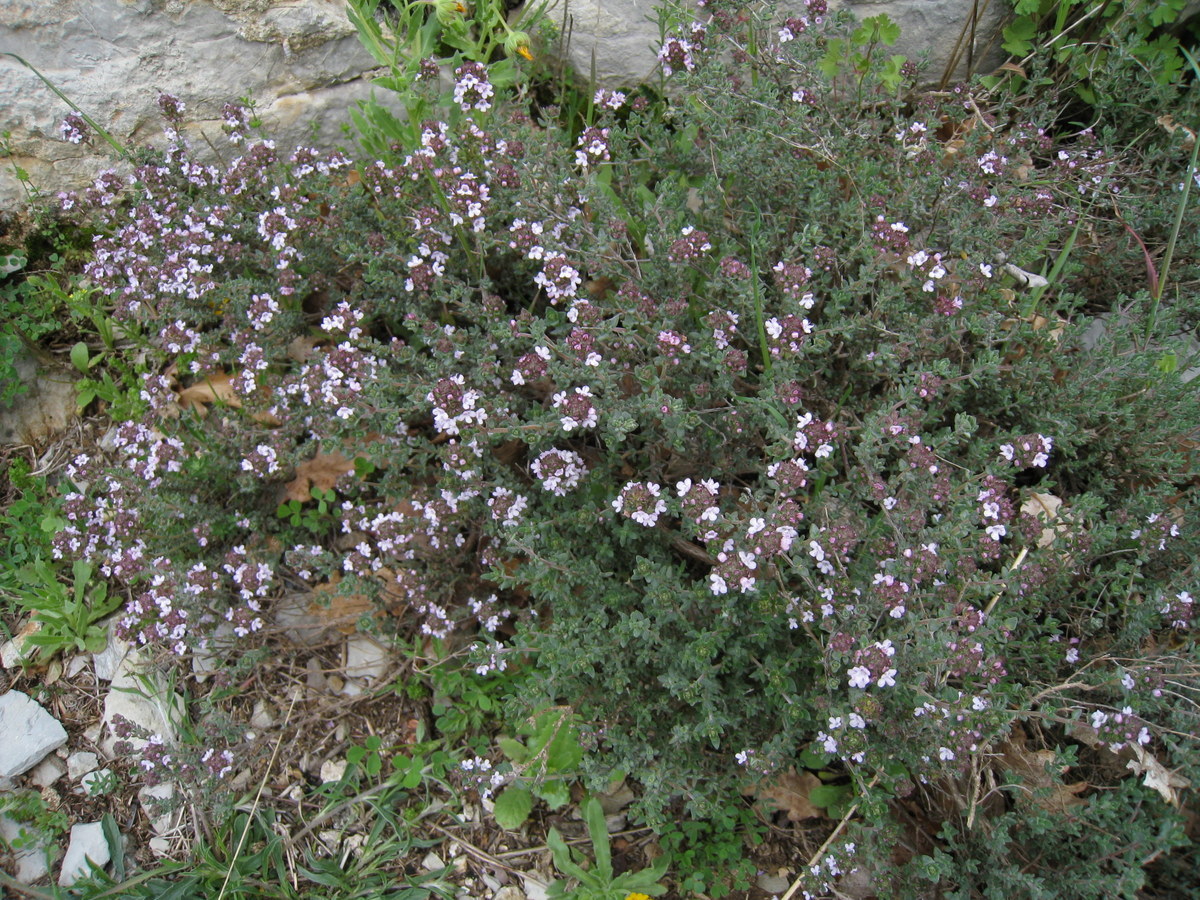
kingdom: Plantae
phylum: Tracheophyta
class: Magnoliopsida
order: Lamiales
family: Lamiaceae
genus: Thymus
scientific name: Thymus vulgaris
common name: Garden thyme
